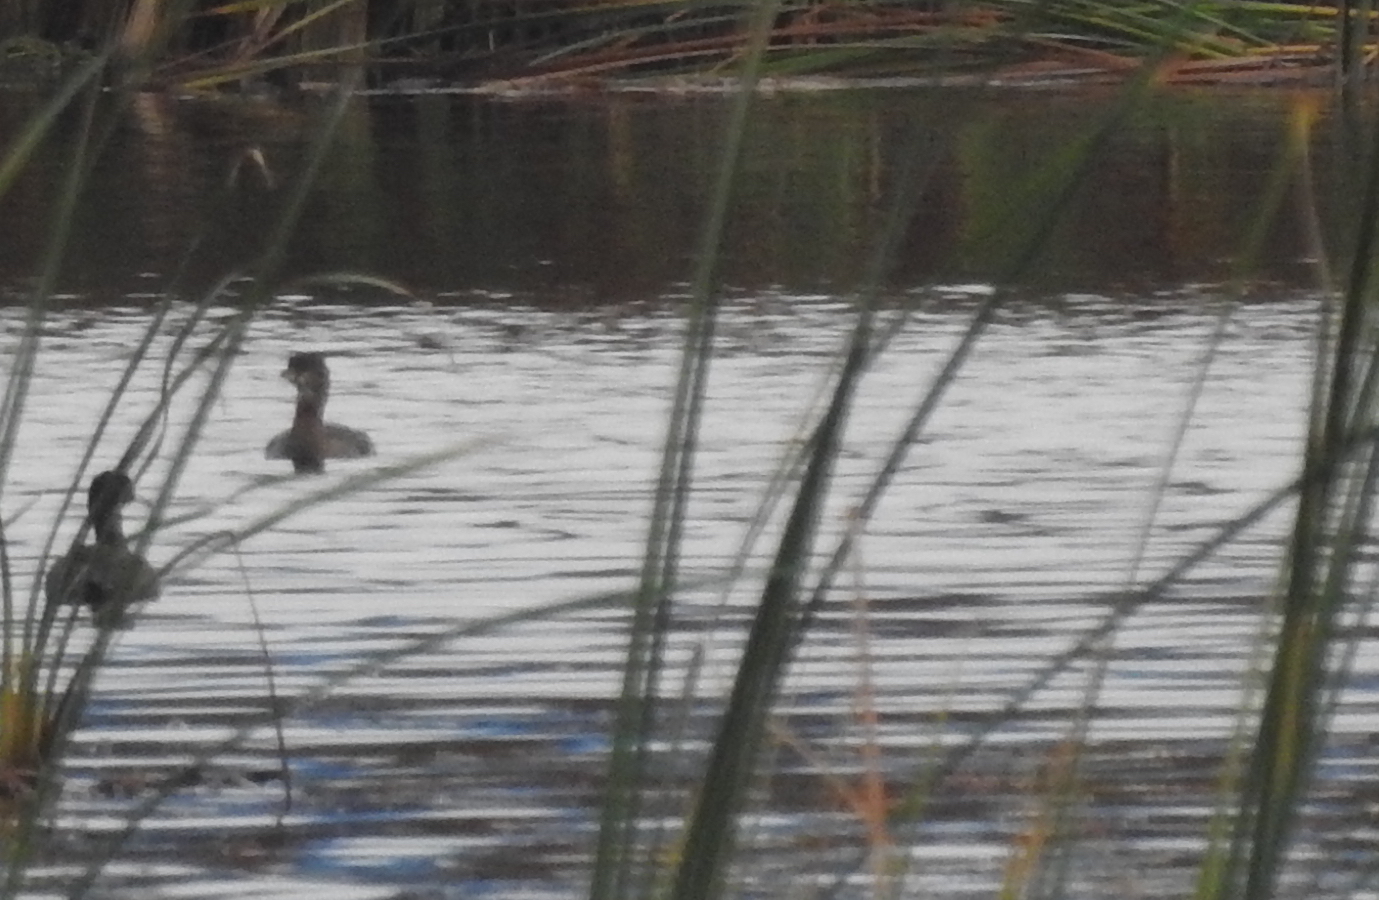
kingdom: Animalia
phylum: Chordata
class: Aves
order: Podicipediformes
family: Podicipedidae
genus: Podilymbus
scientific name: Podilymbus podiceps
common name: Pied-billed grebe
